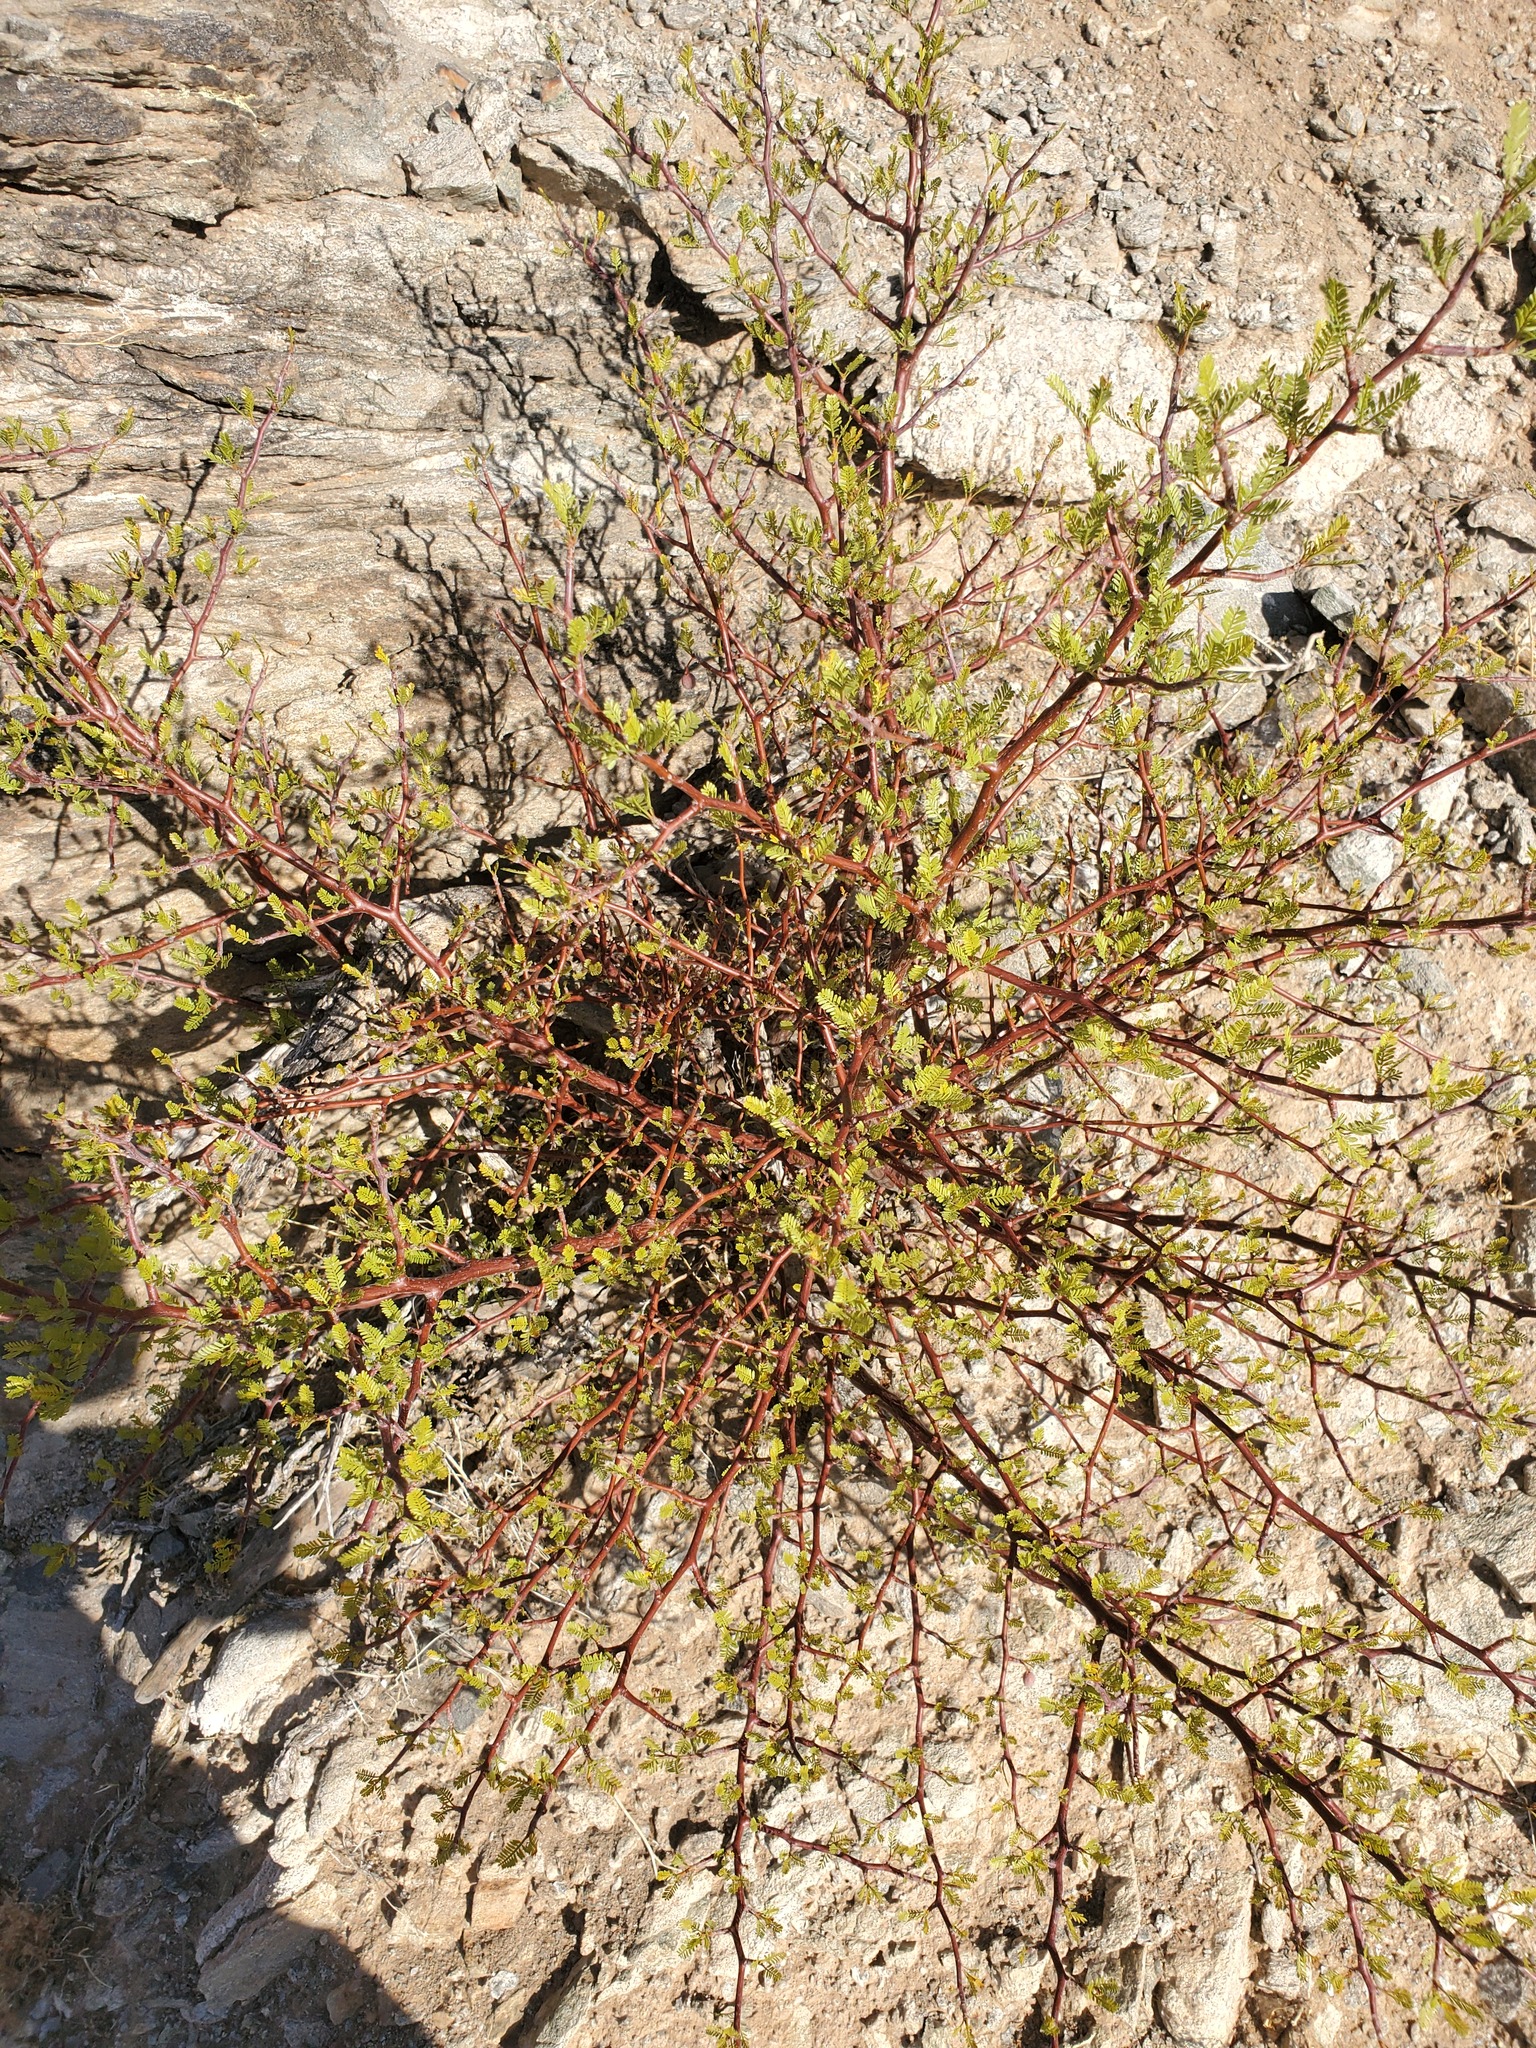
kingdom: Plantae
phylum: Tracheophyta
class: Magnoliopsida
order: Sapindales
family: Burseraceae
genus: Bursera
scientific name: Bursera microphylla
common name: Elephant tree
